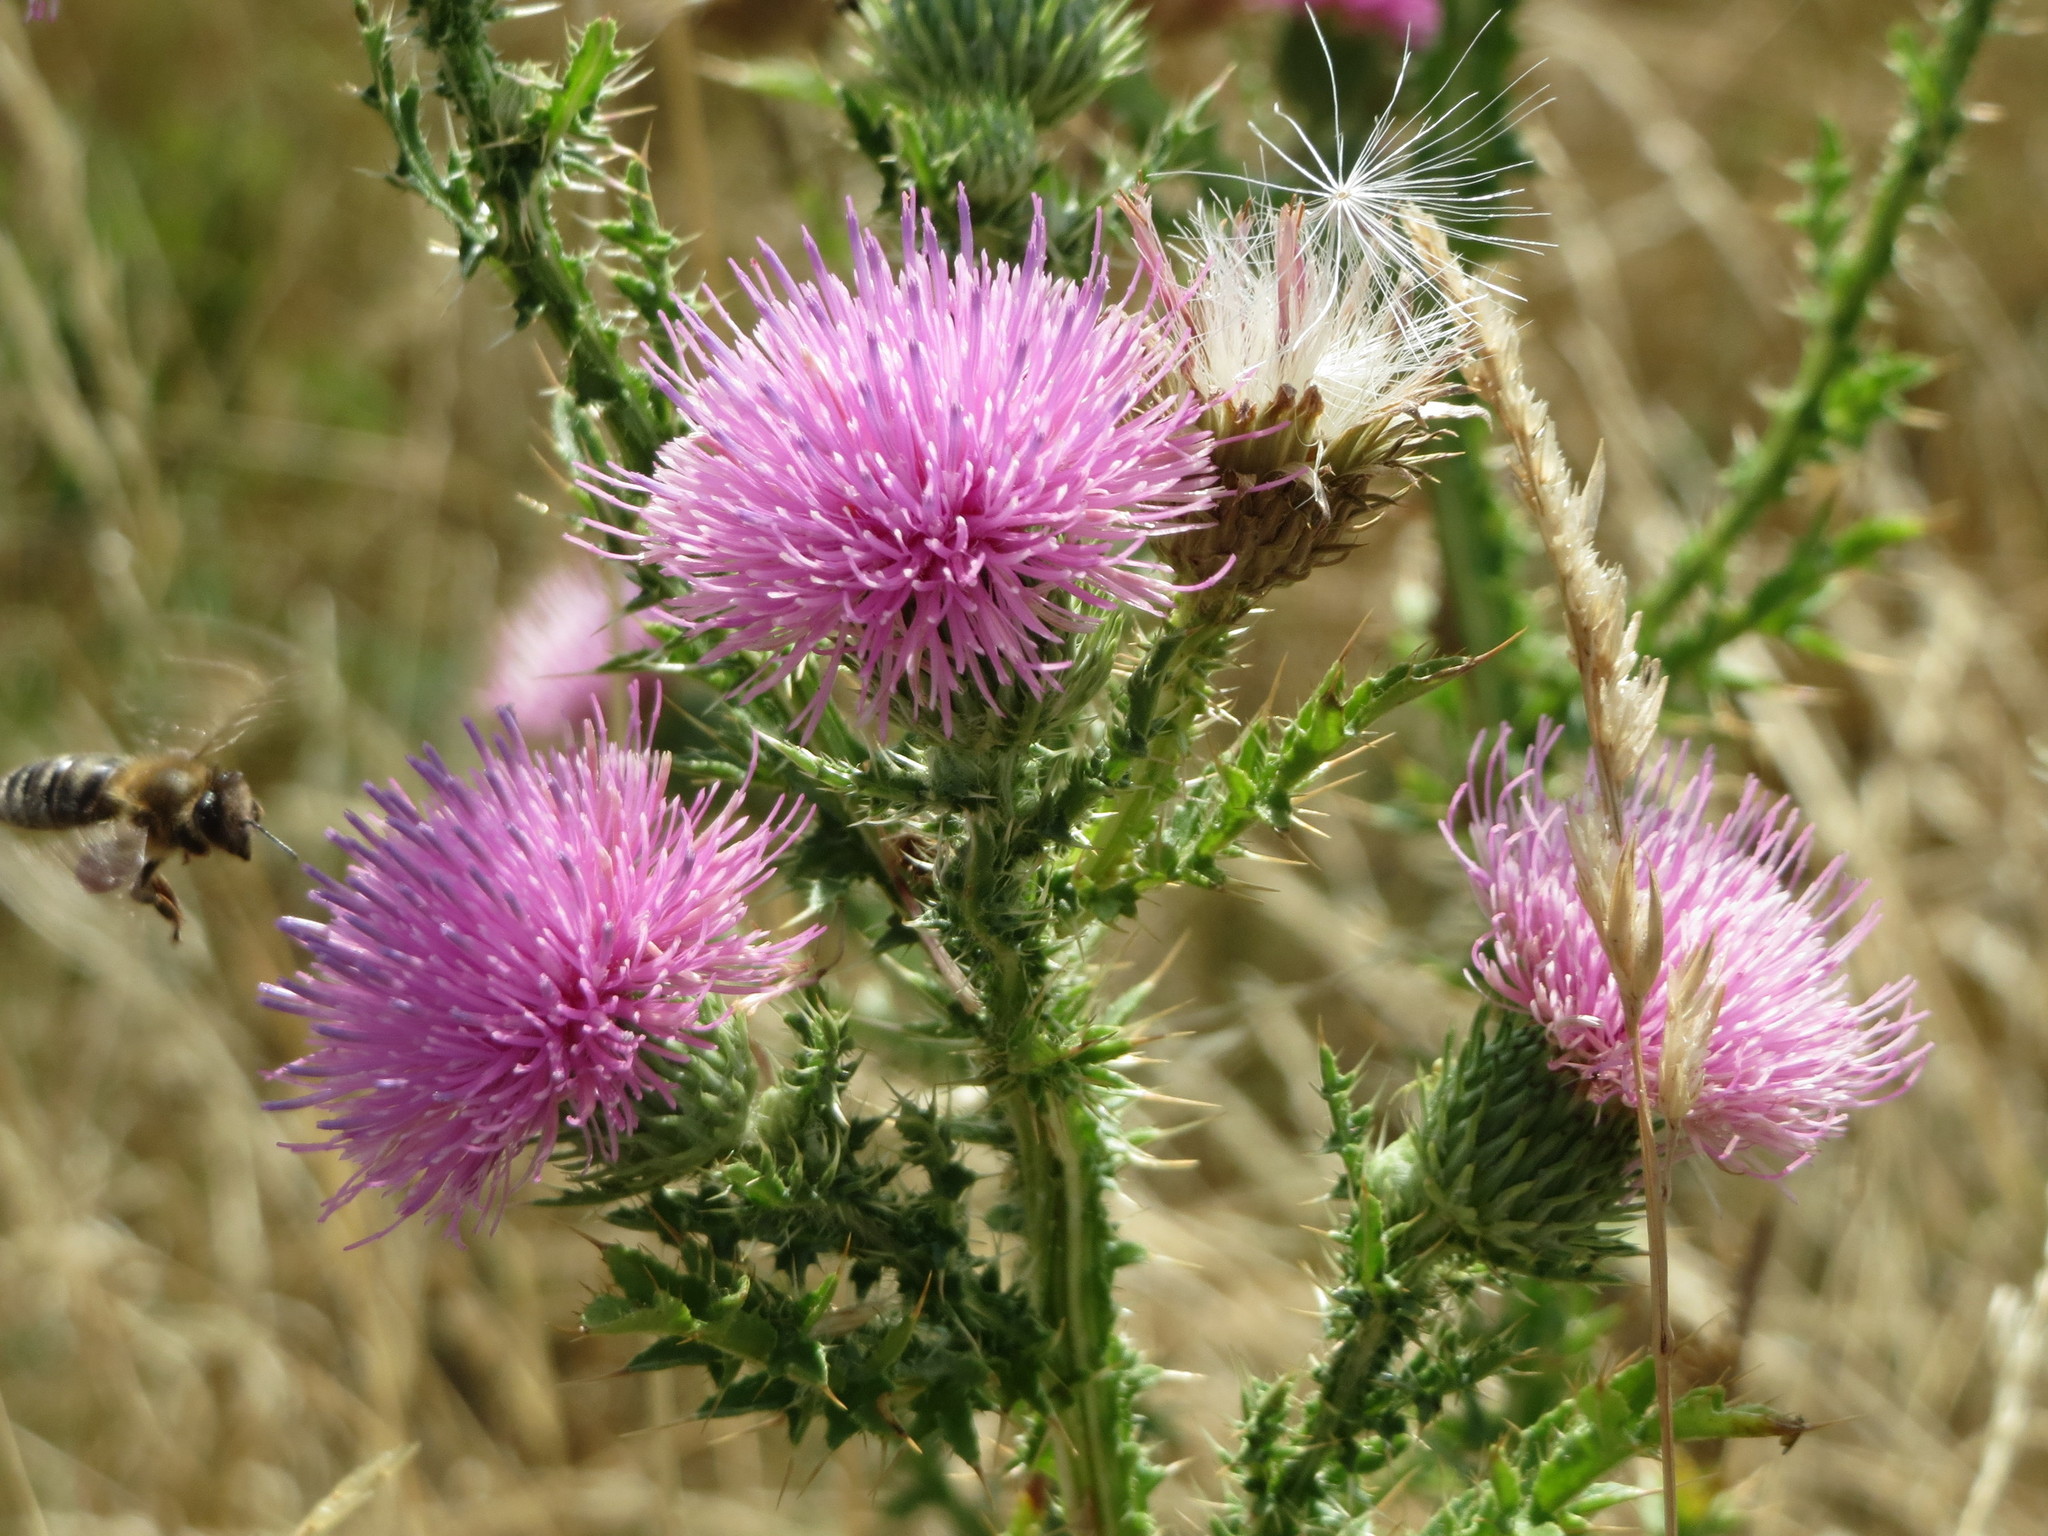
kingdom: Plantae
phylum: Tracheophyta
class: Magnoliopsida
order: Asterales
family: Asteraceae
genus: Carduus
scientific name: Carduus acanthoides
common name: Plumeless thistle
